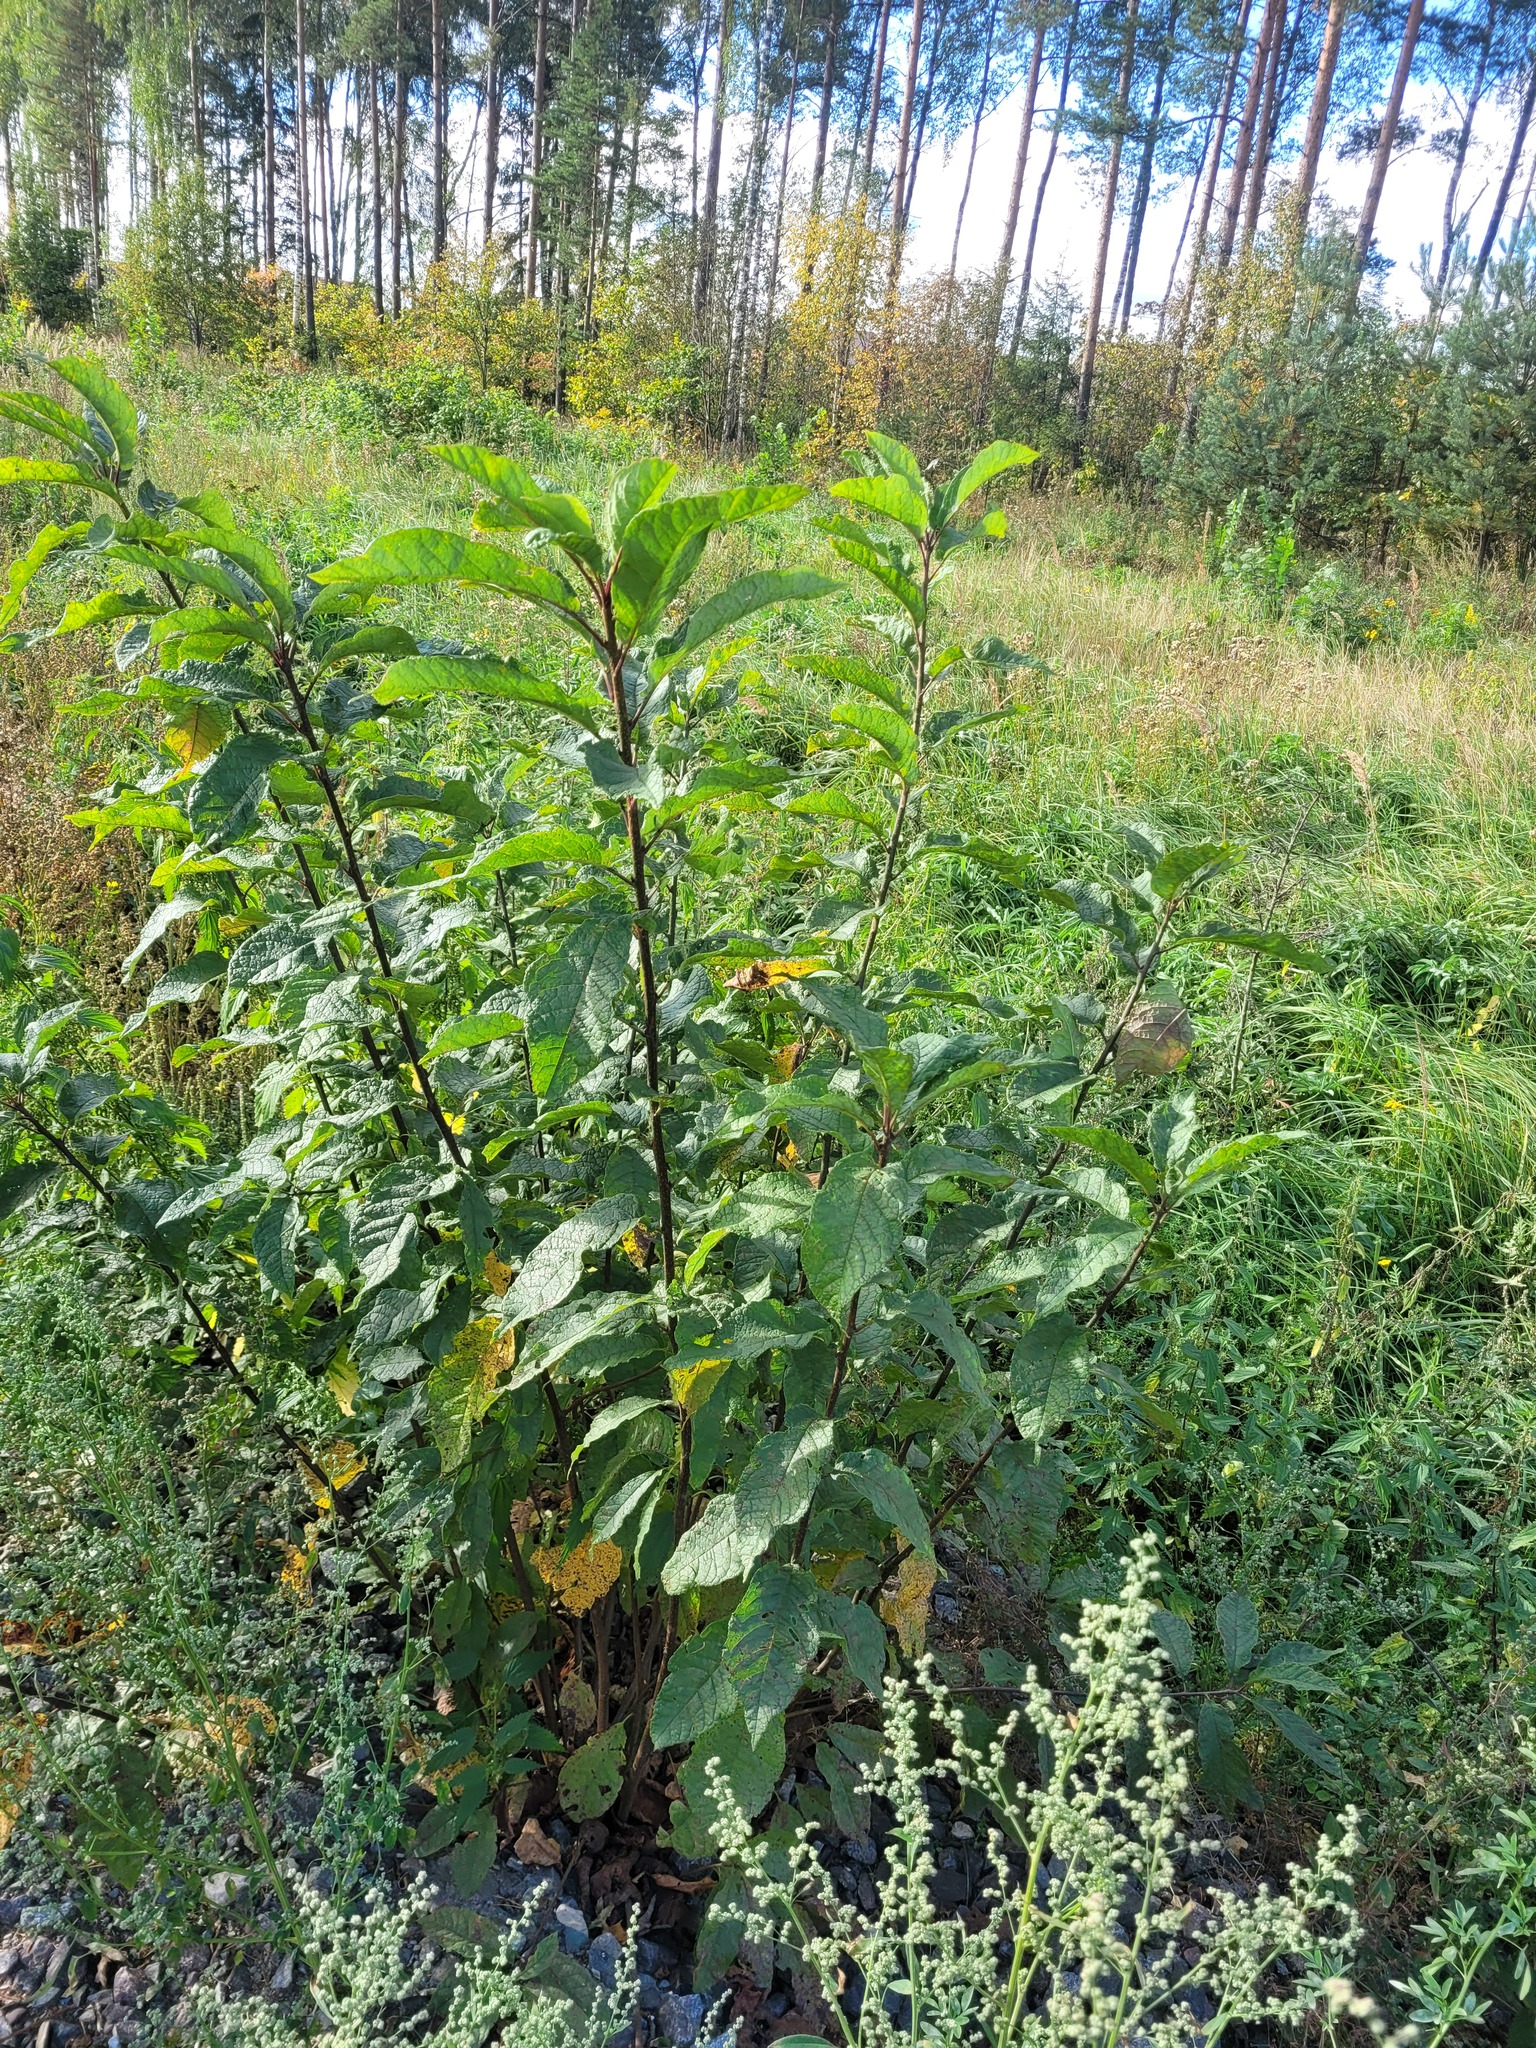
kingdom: Plantae
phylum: Tracheophyta
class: Magnoliopsida
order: Rosales
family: Rosaceae
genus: Prunus
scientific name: Prunus padus
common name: Bird cherry
